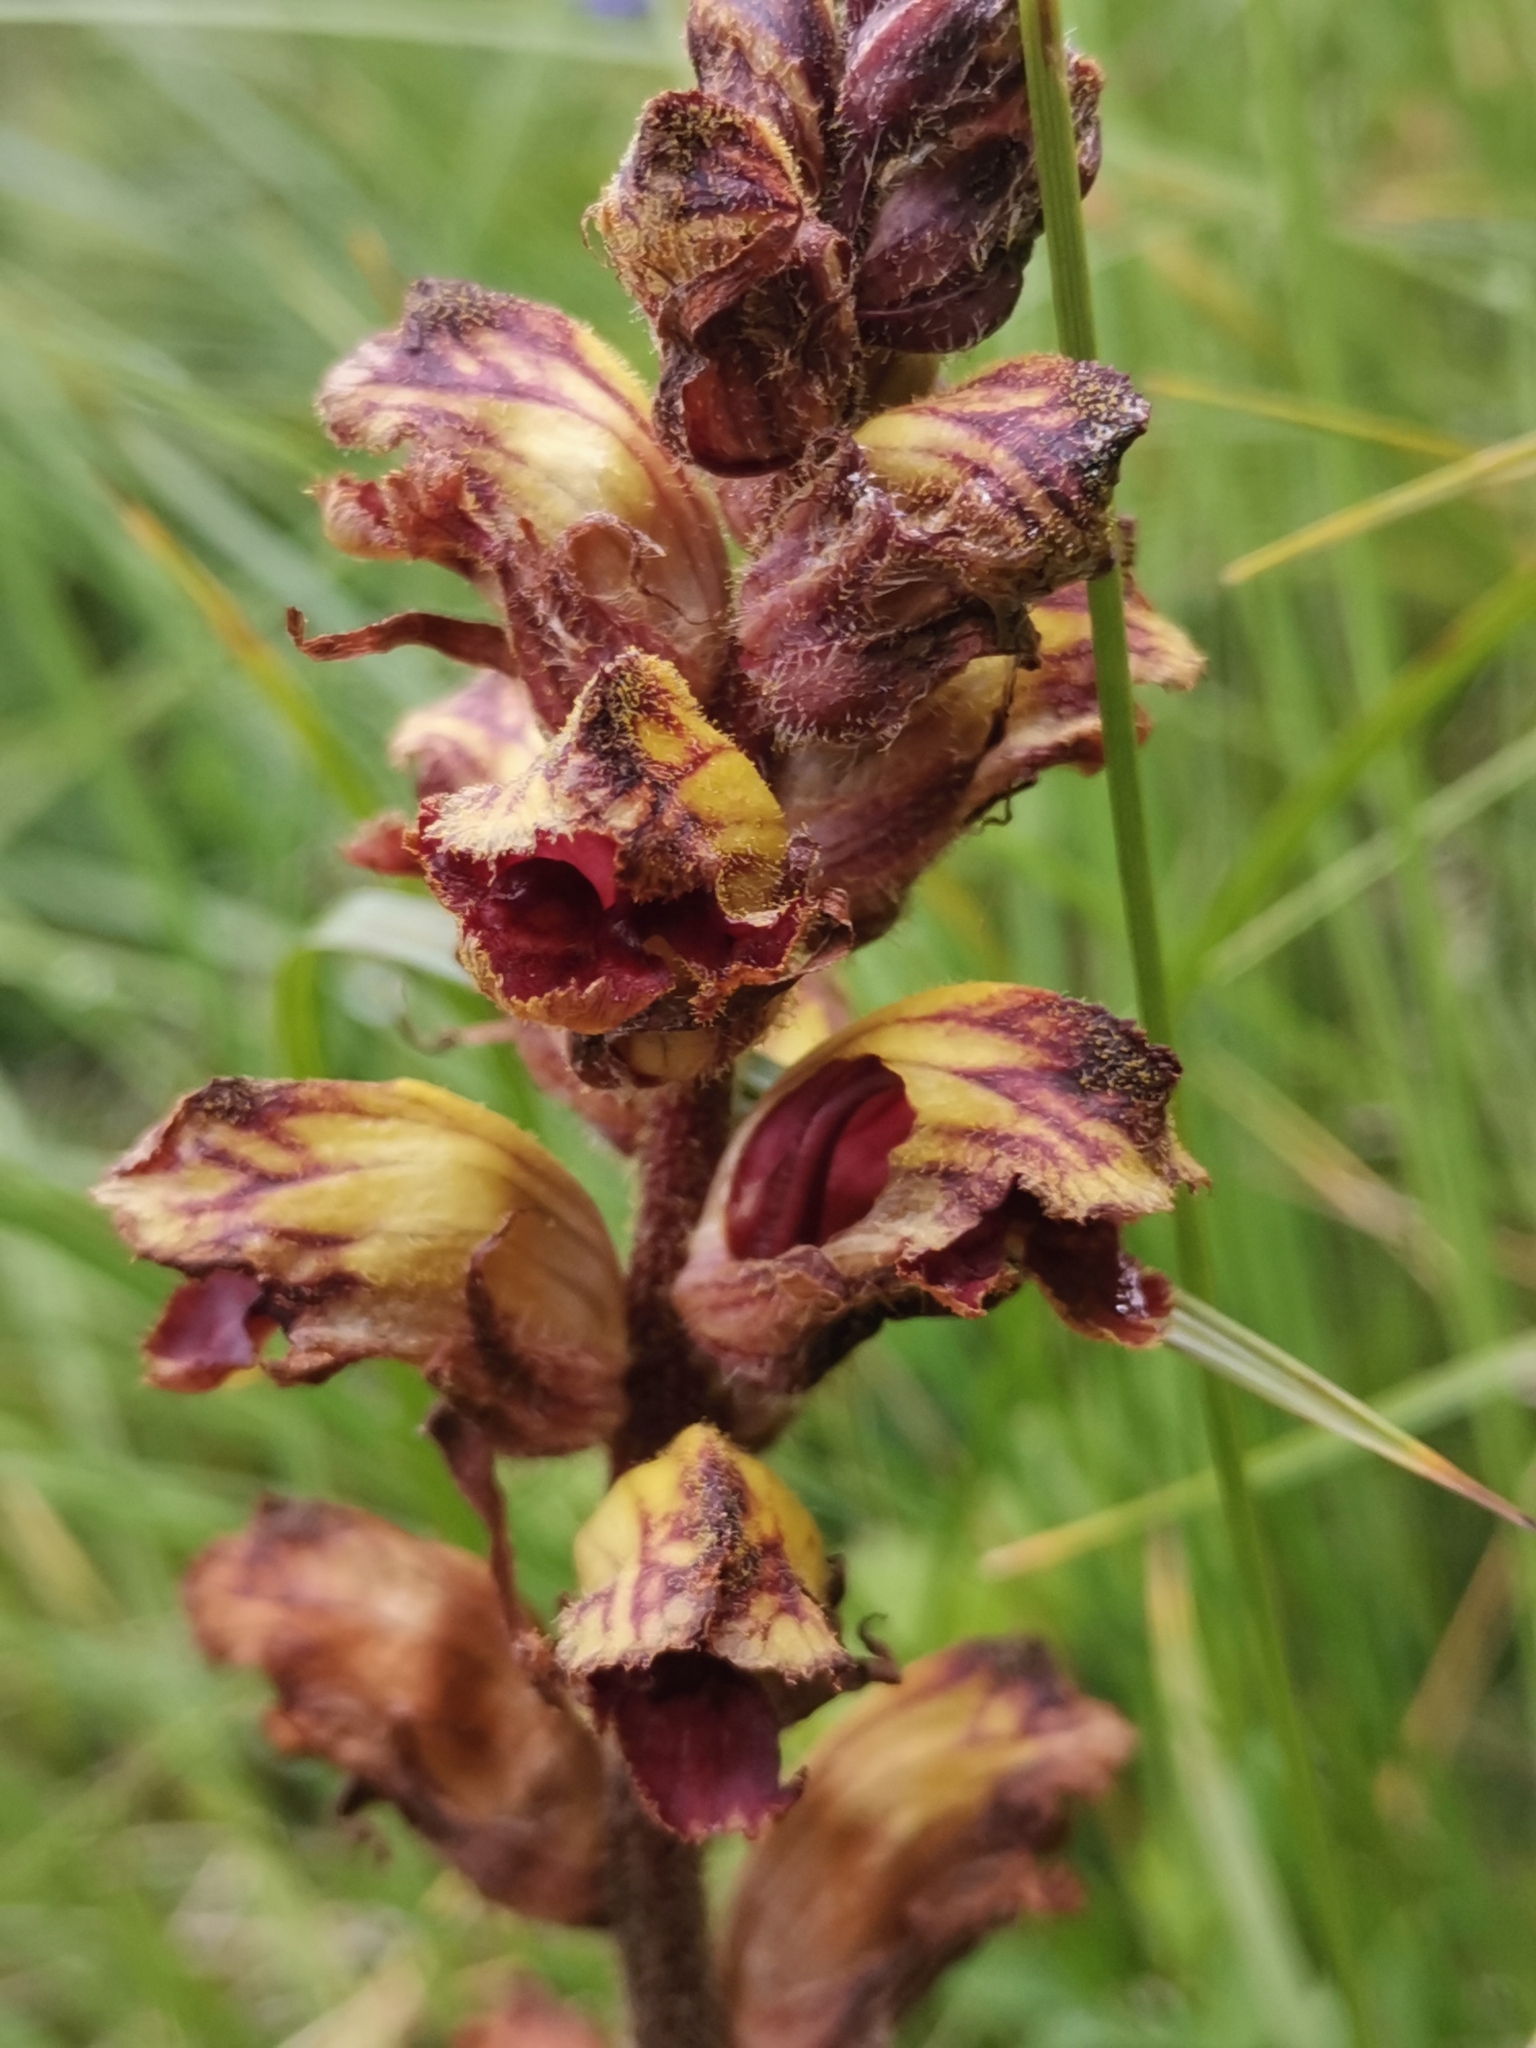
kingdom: Plantae
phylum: Tracheophyta
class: Magnoliopsida
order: Lamiales
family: Orobanchaceae
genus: Orobanche
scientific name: Orobanche gracilis
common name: Slender broomrape
